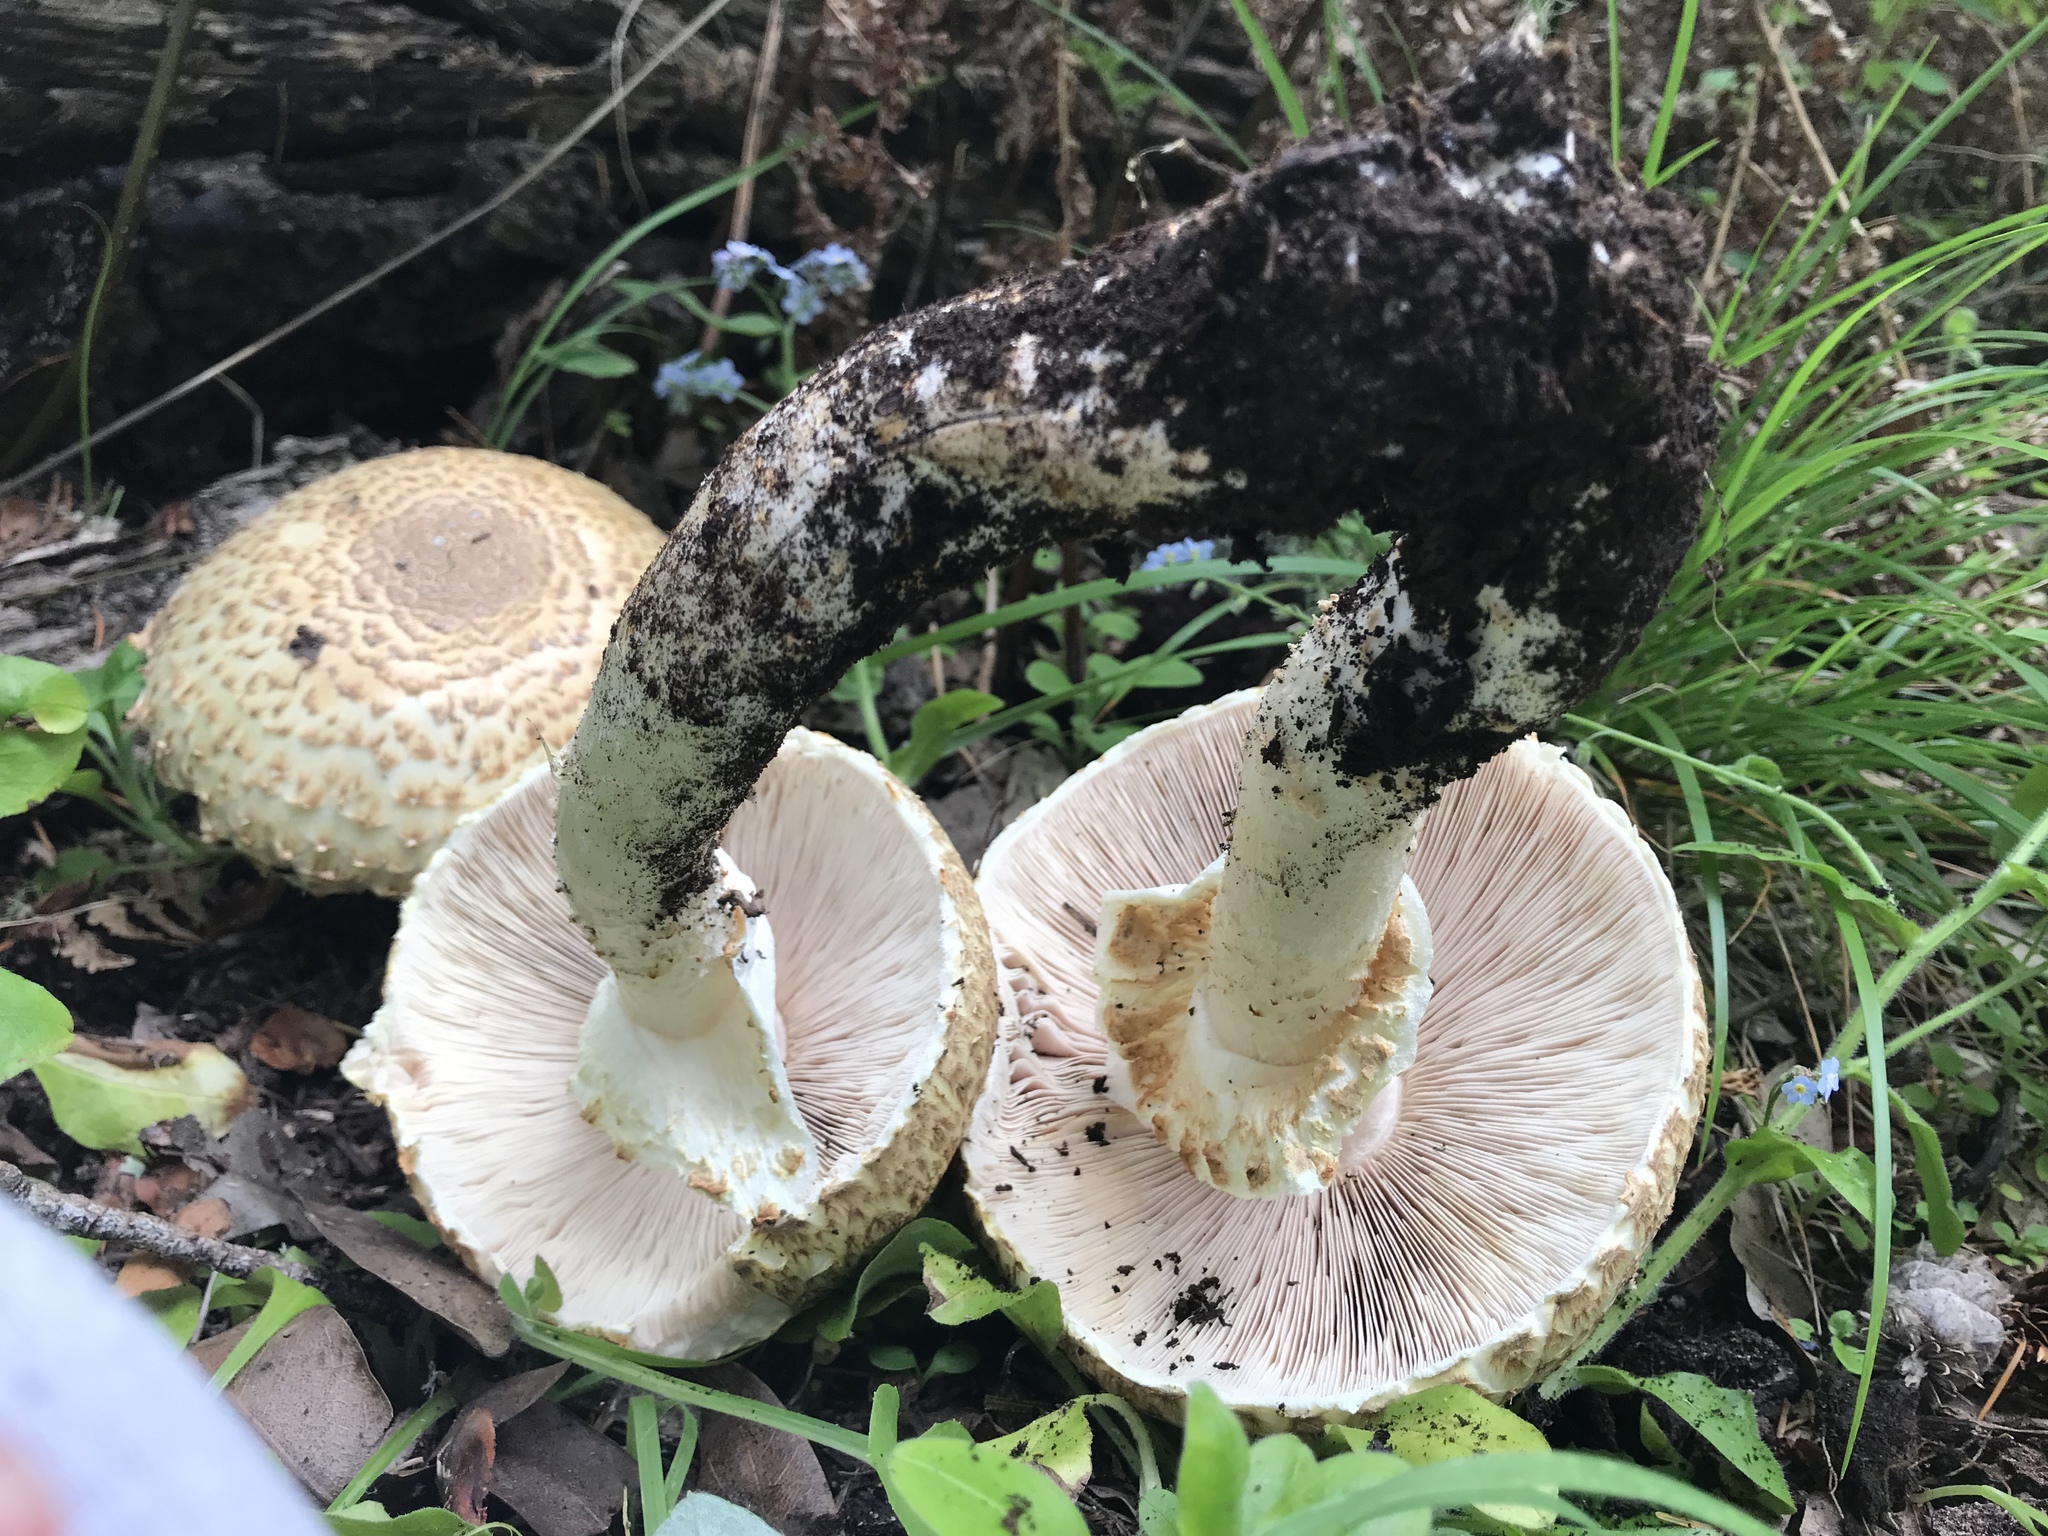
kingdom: Fungi
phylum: Basidiomycota
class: Agaricomycetes
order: Agaricales
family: Agaricaceae
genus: Agaricus
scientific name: Agaricus augustus
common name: Prince
